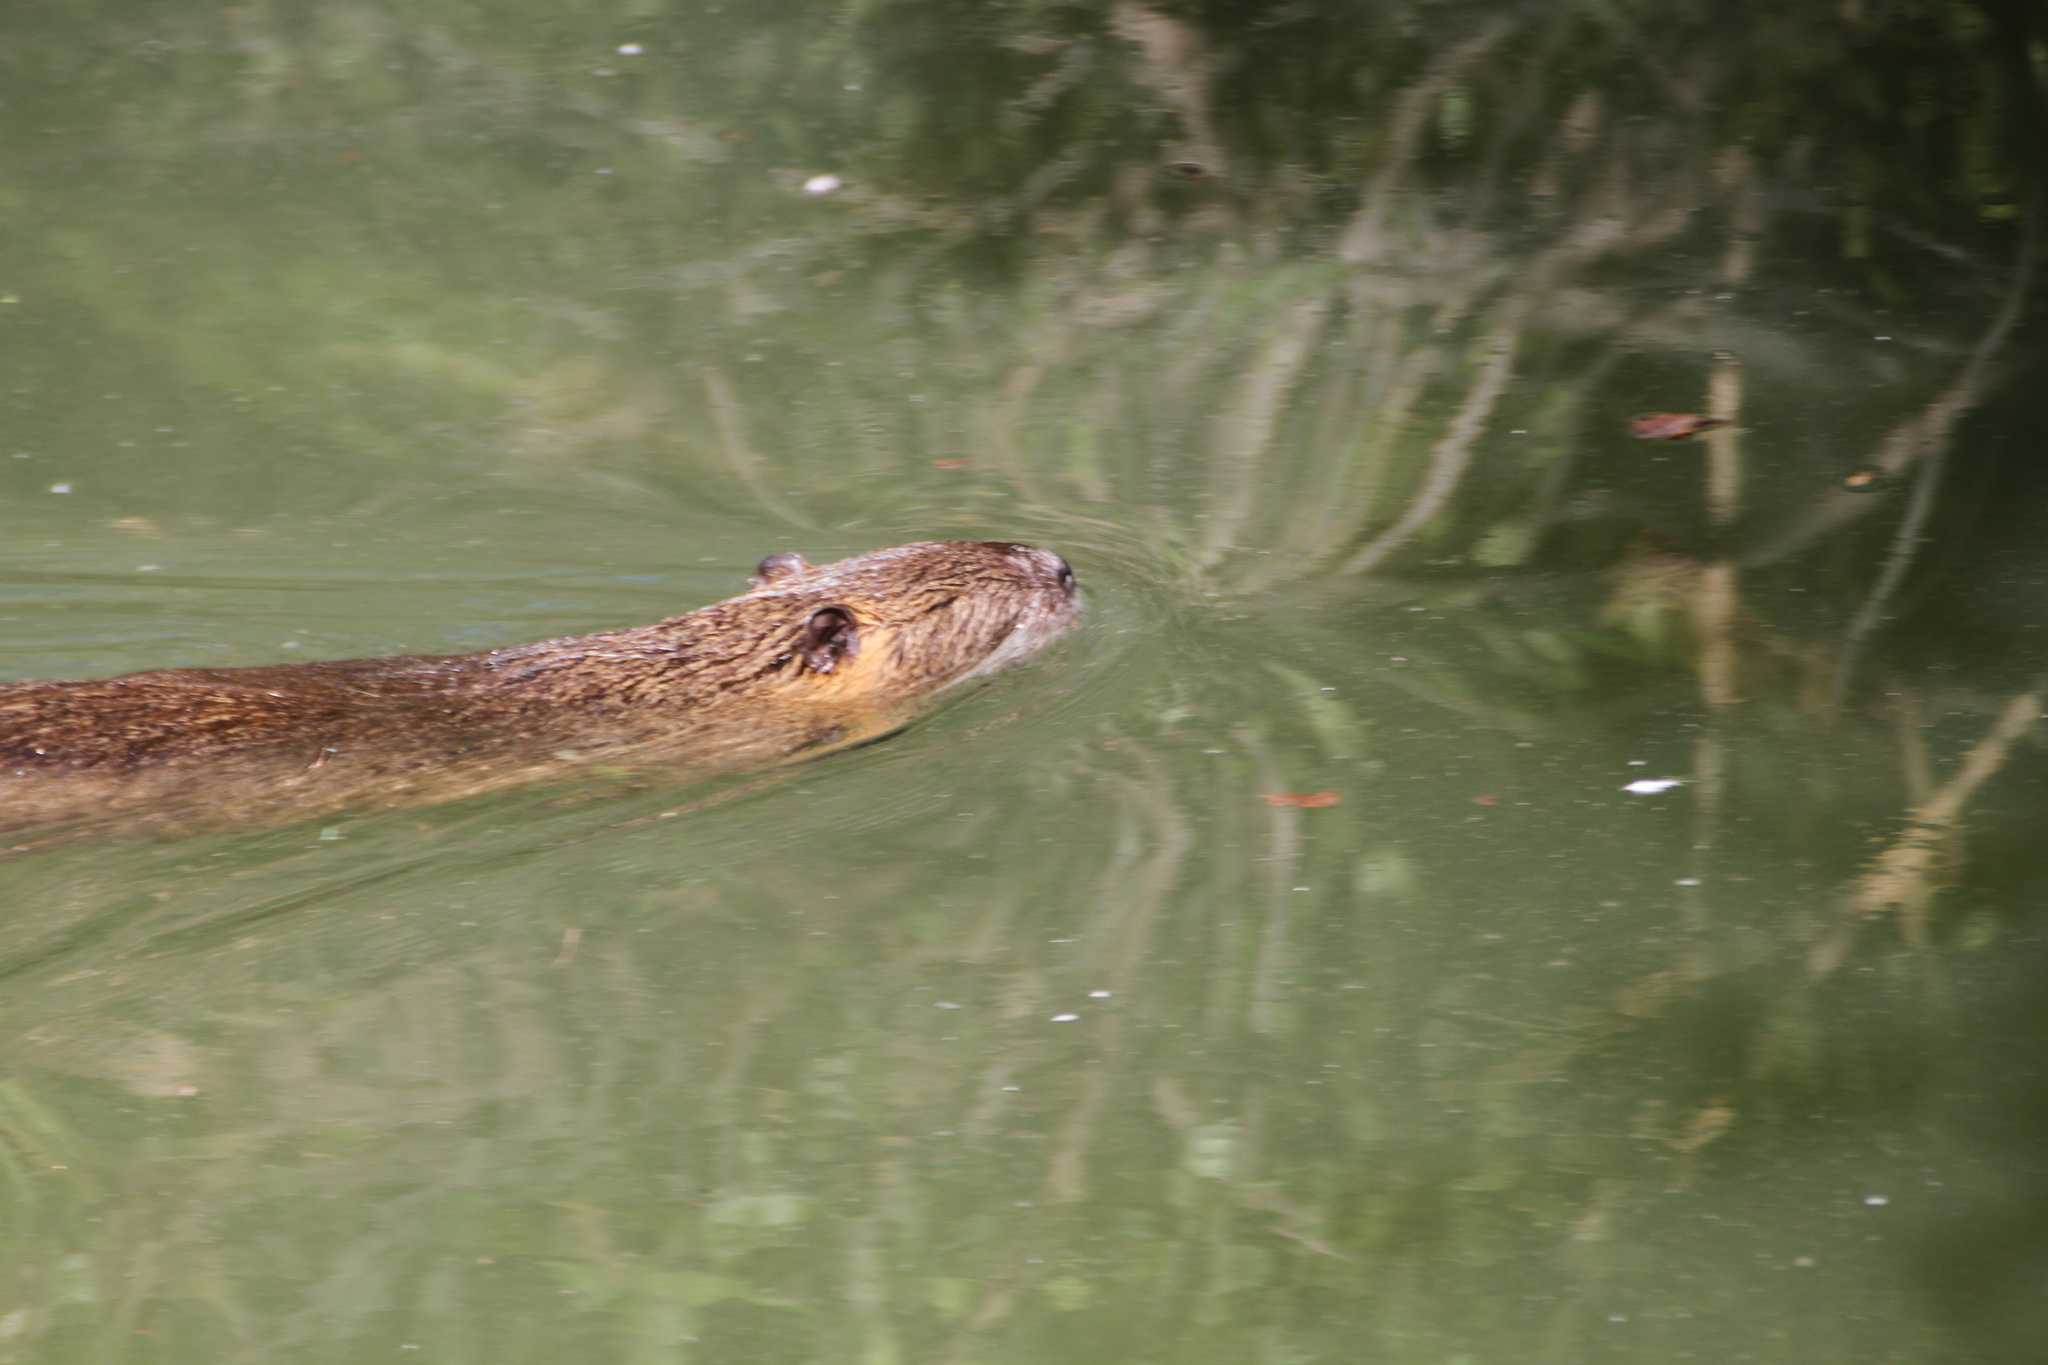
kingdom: Animalia
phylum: Chordata
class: Mammalia
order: Rodentia
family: Myocastoridae
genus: Myocastor
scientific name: Myocastor coypus
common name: Coypu
